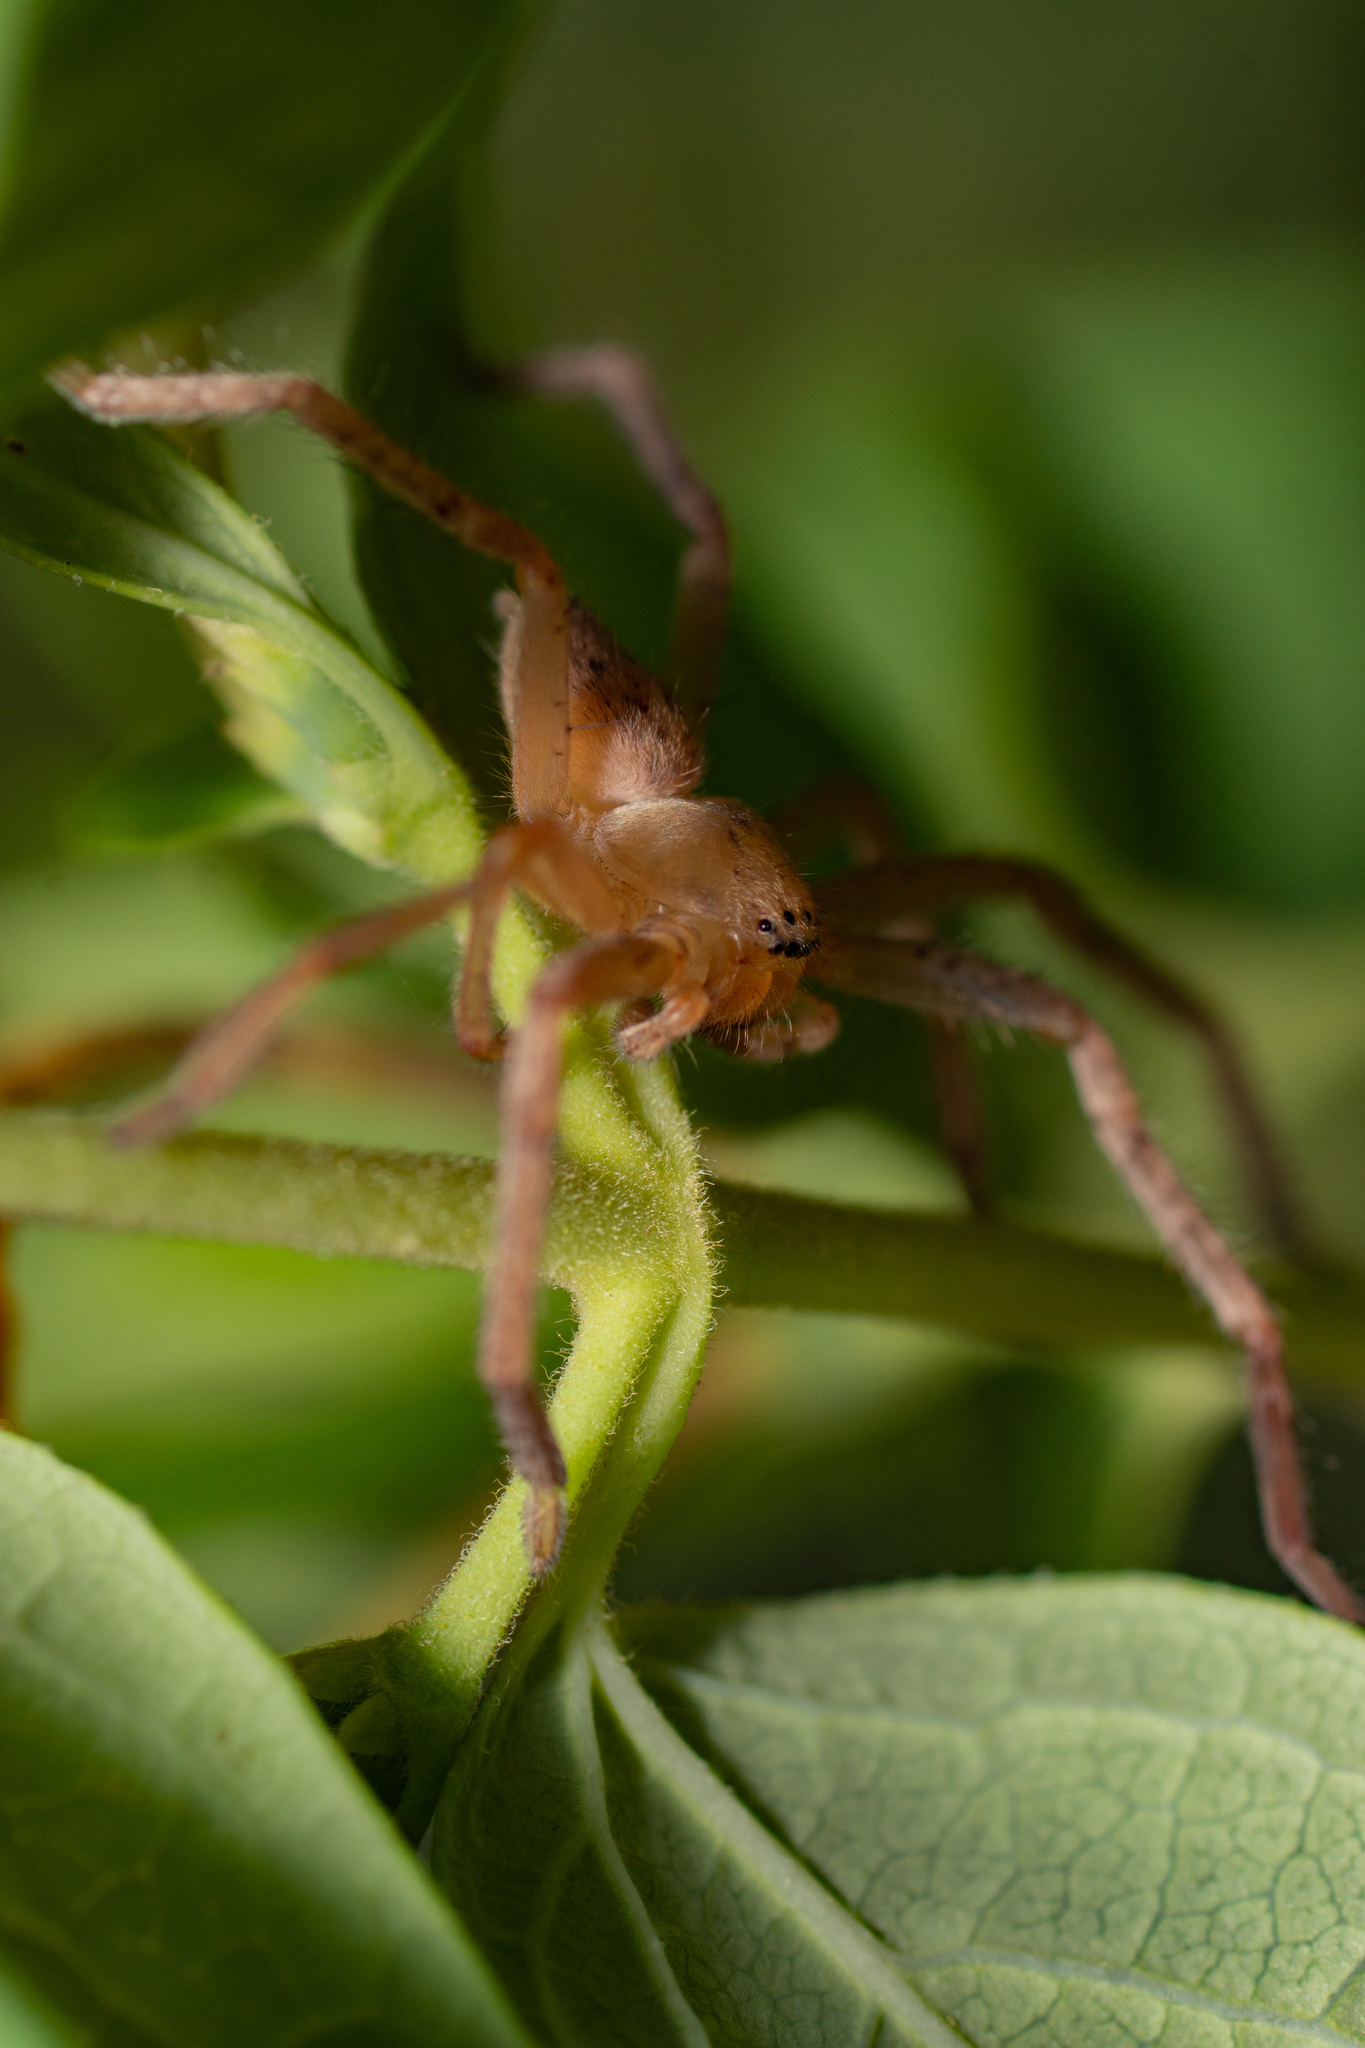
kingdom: Animalia
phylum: Arthropoda
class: Arachnida
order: Araneae
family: Sparassidae
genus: Olios
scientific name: Olios argelasius
